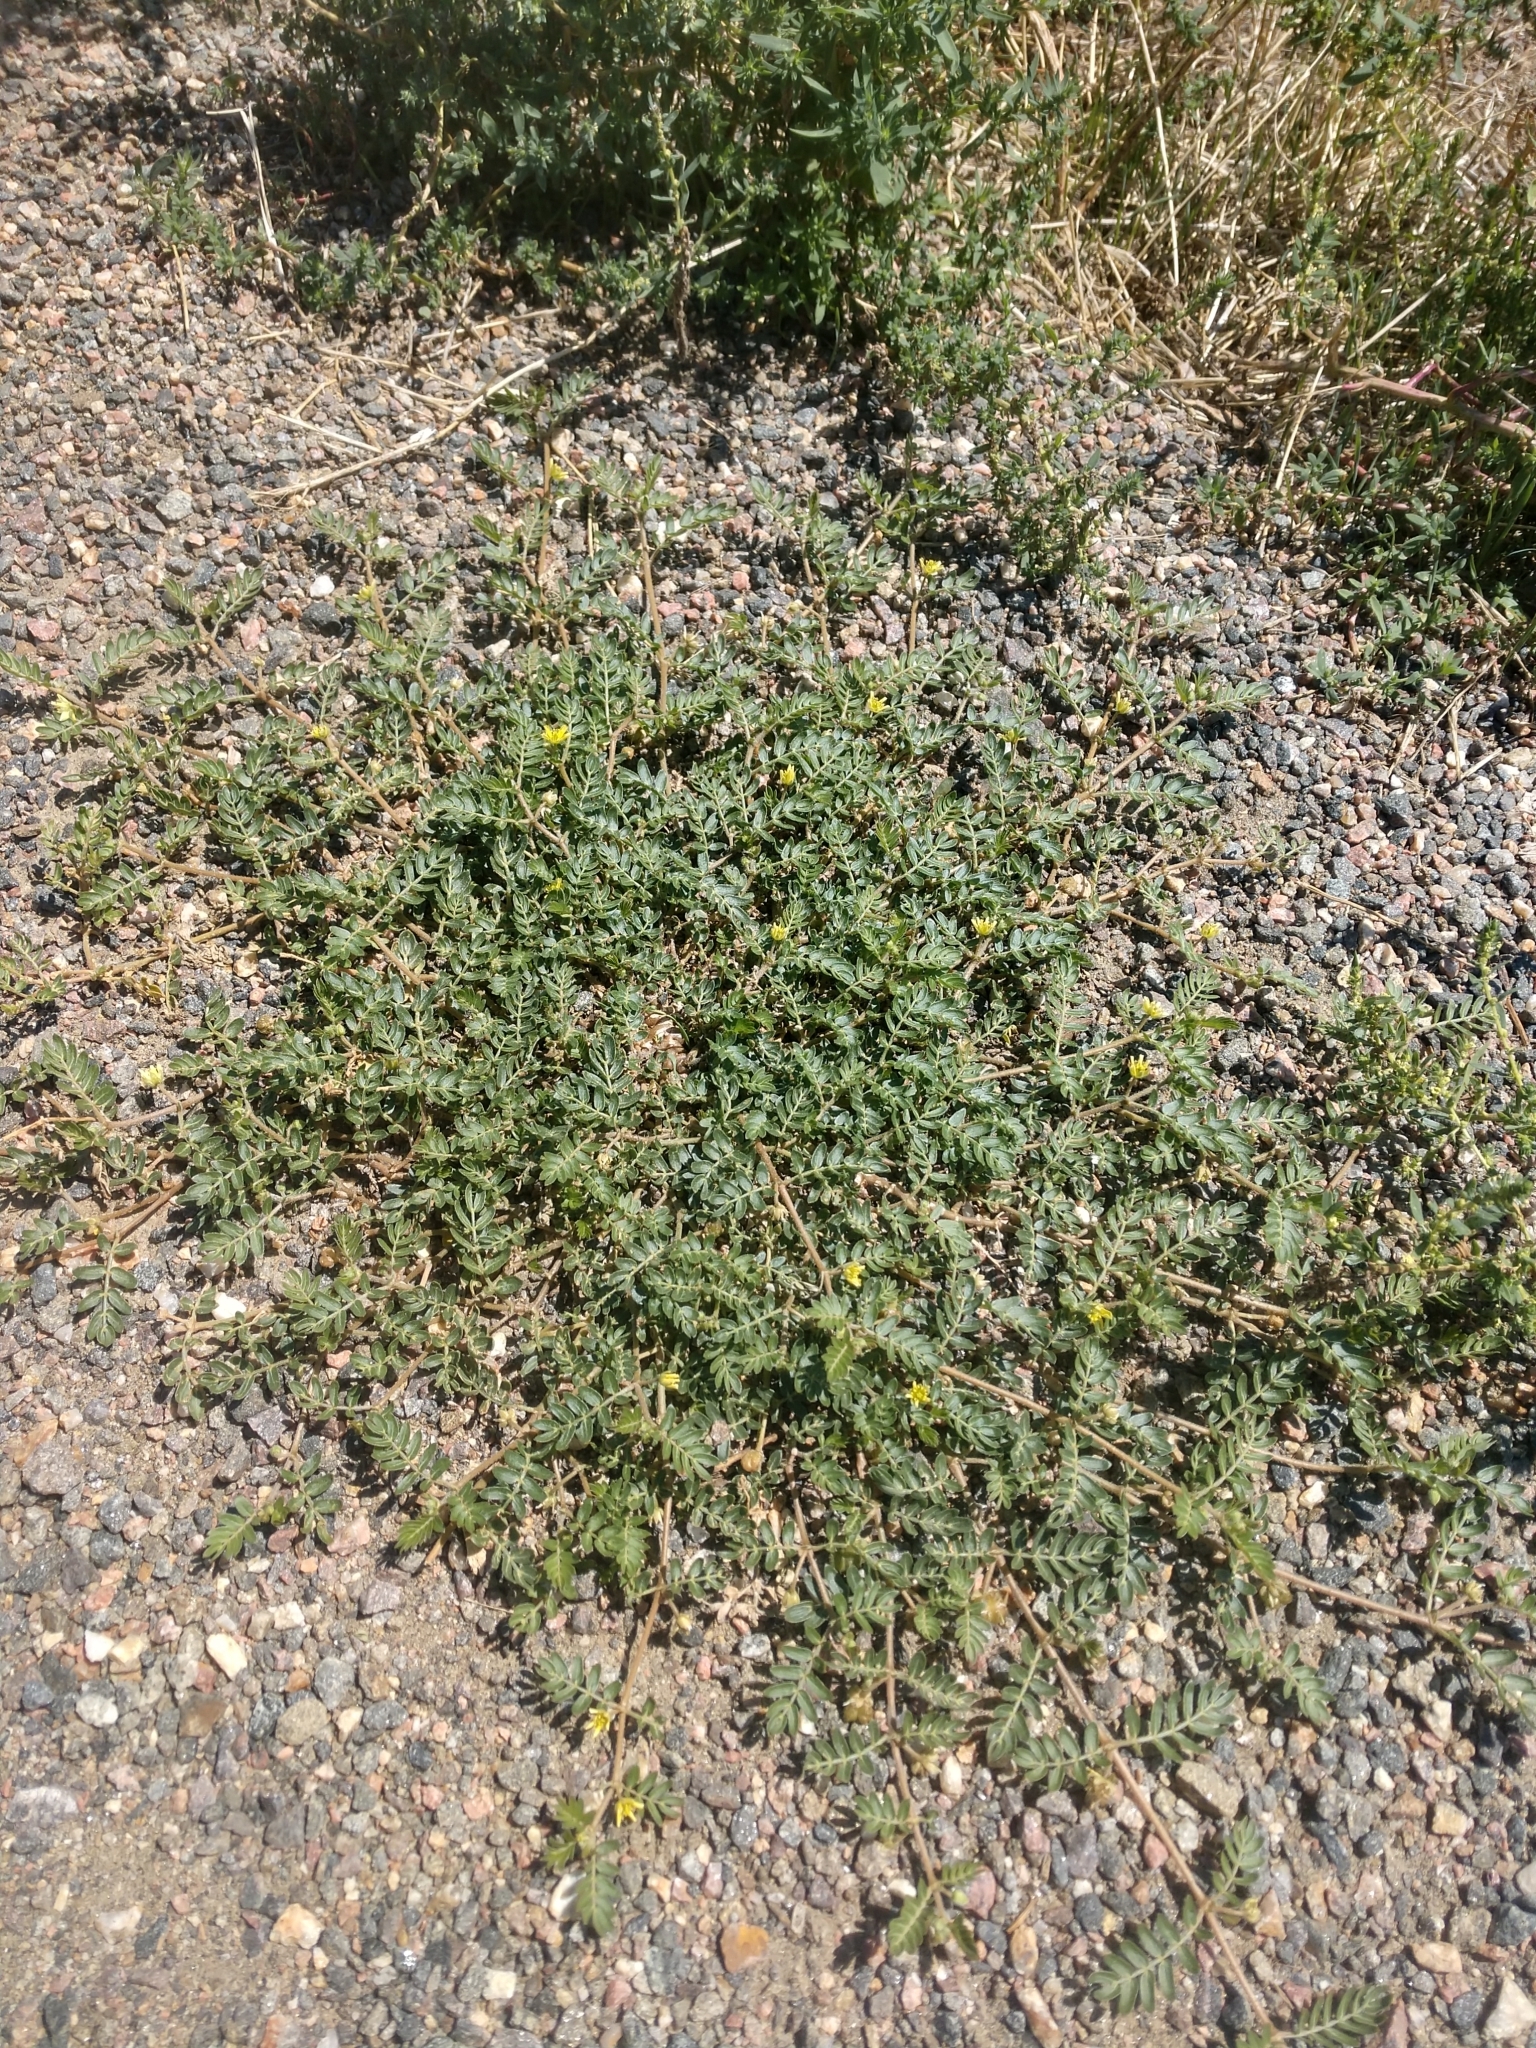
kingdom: Plantae
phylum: Tracheophyta
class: Magnoliopsida
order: Zygophyllales
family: Zygophyllaceae
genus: Tribulus
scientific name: Tribulus terrestris
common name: Puncturevine
